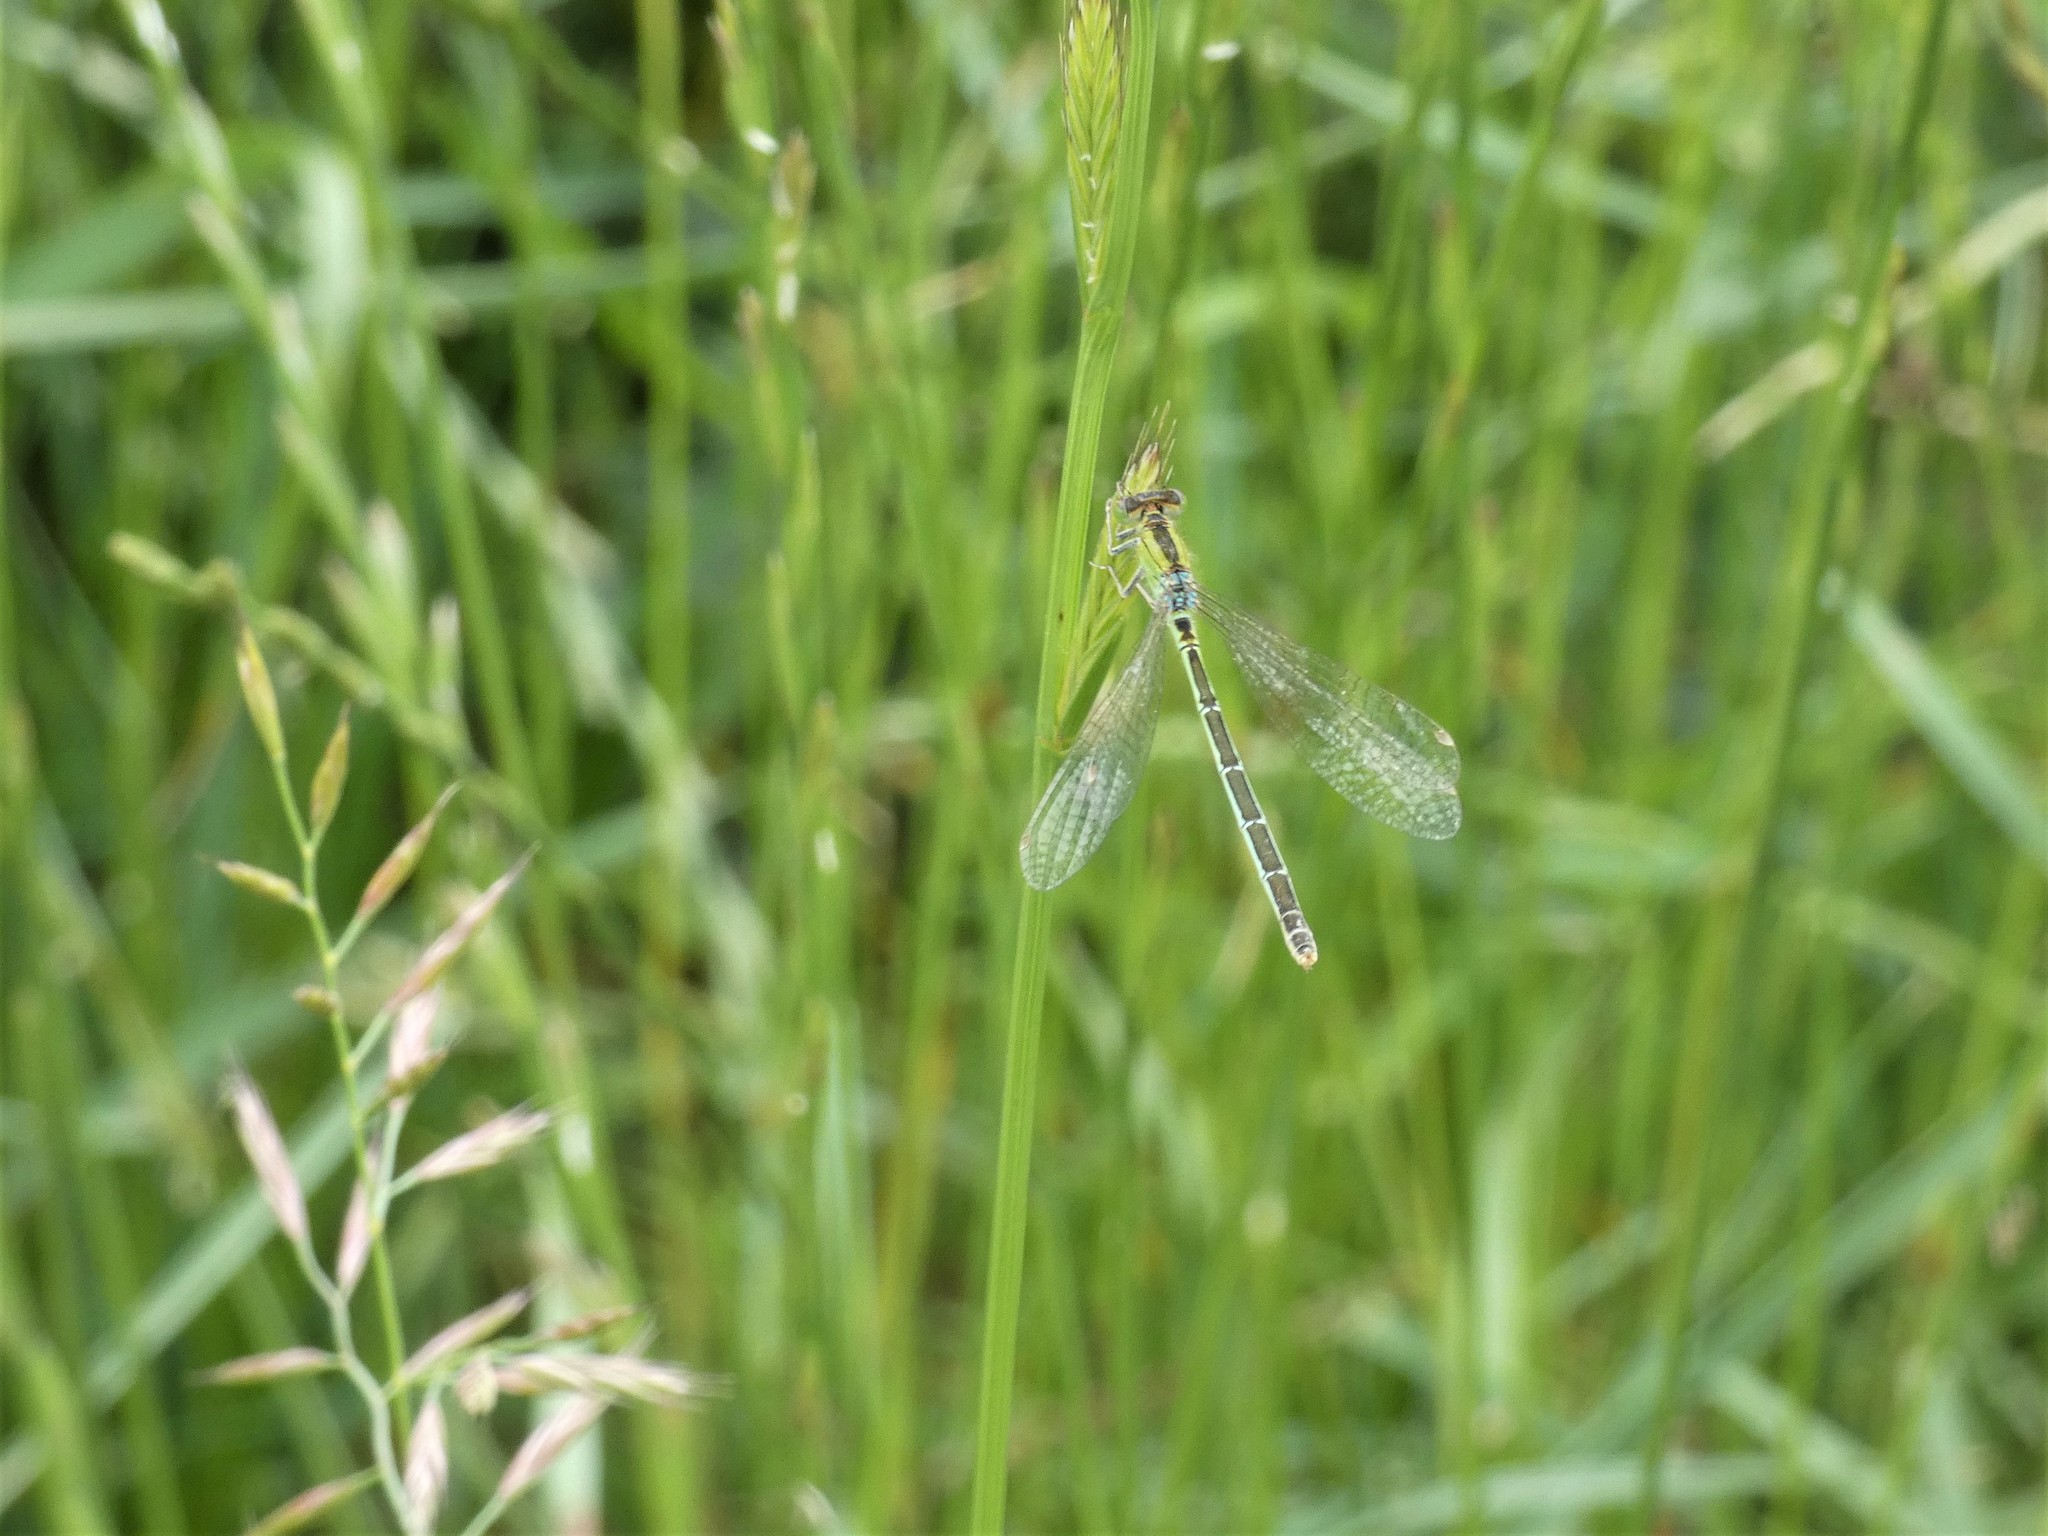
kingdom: Animalia
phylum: Arthropoda
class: Insecta
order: Odonata
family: Coenagrionidae
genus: Ischnura
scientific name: Ischnura pumilio
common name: Scarce blue-tailed damselfly
